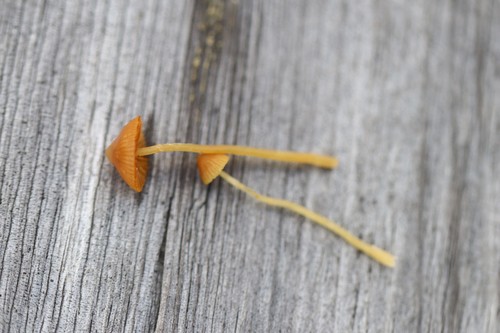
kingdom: Fungi
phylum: Basidiomycota
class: Agaricomycetes
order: Agaricales
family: Hymenogastraceae
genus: Galerina
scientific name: Galerina sphagnorum
